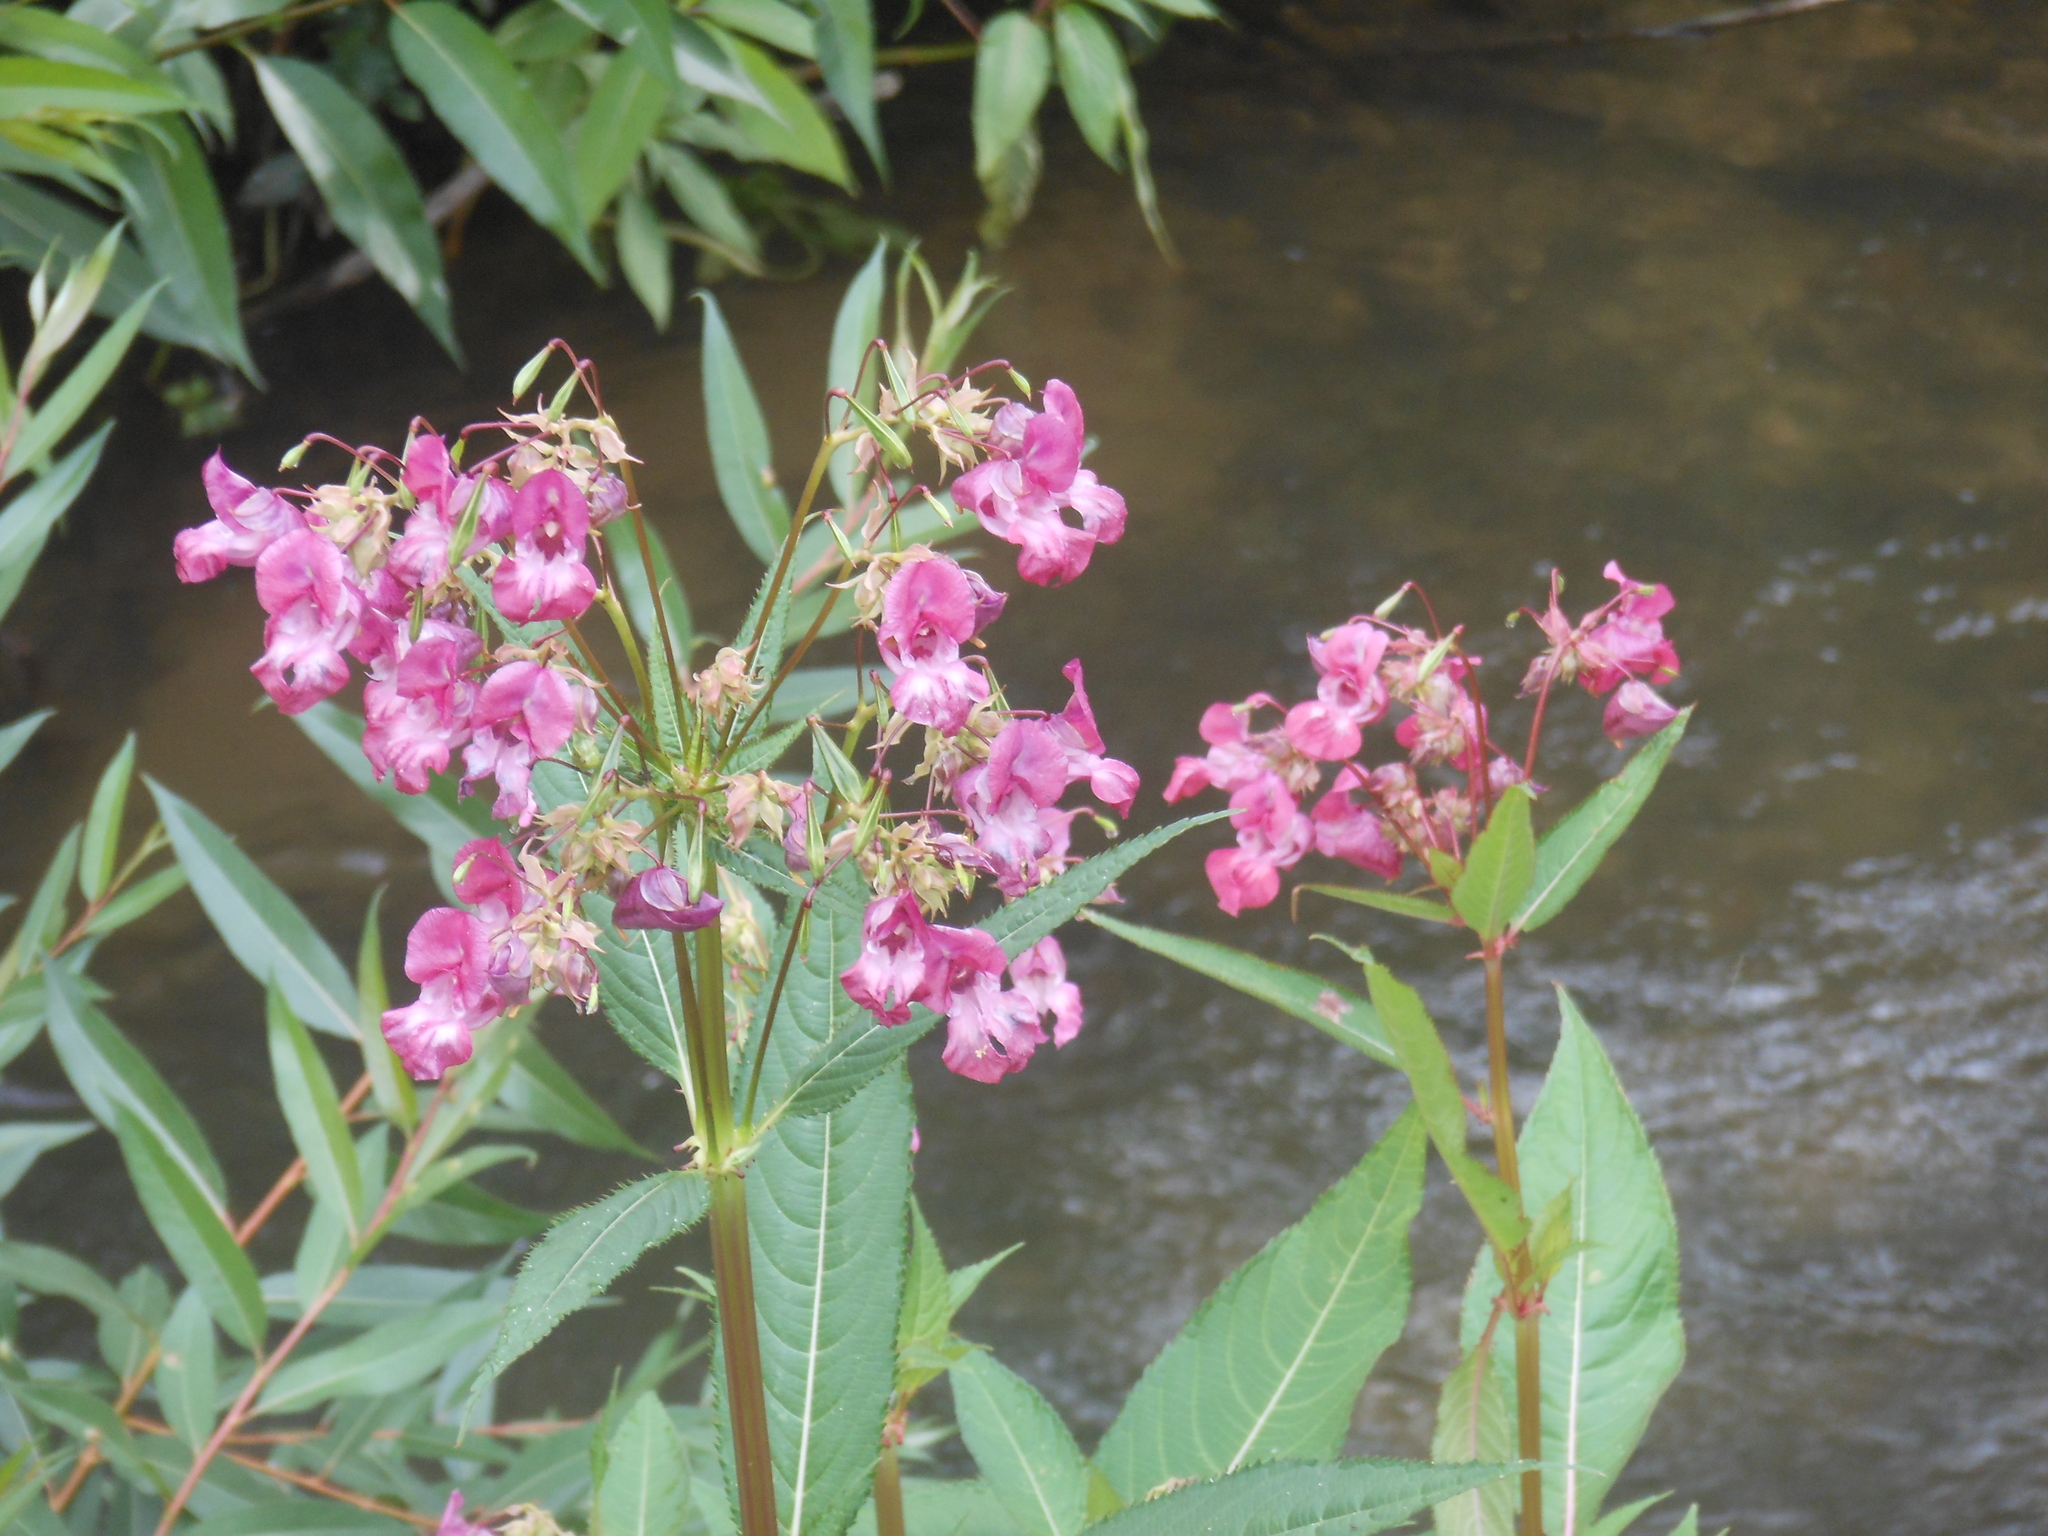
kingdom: Plantae
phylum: Tracheophyta
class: Magnoliopsida
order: Ericales
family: Balsaminaceae
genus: Impatiens
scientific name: Impatiens glandulifera
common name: Himalayan balsam
